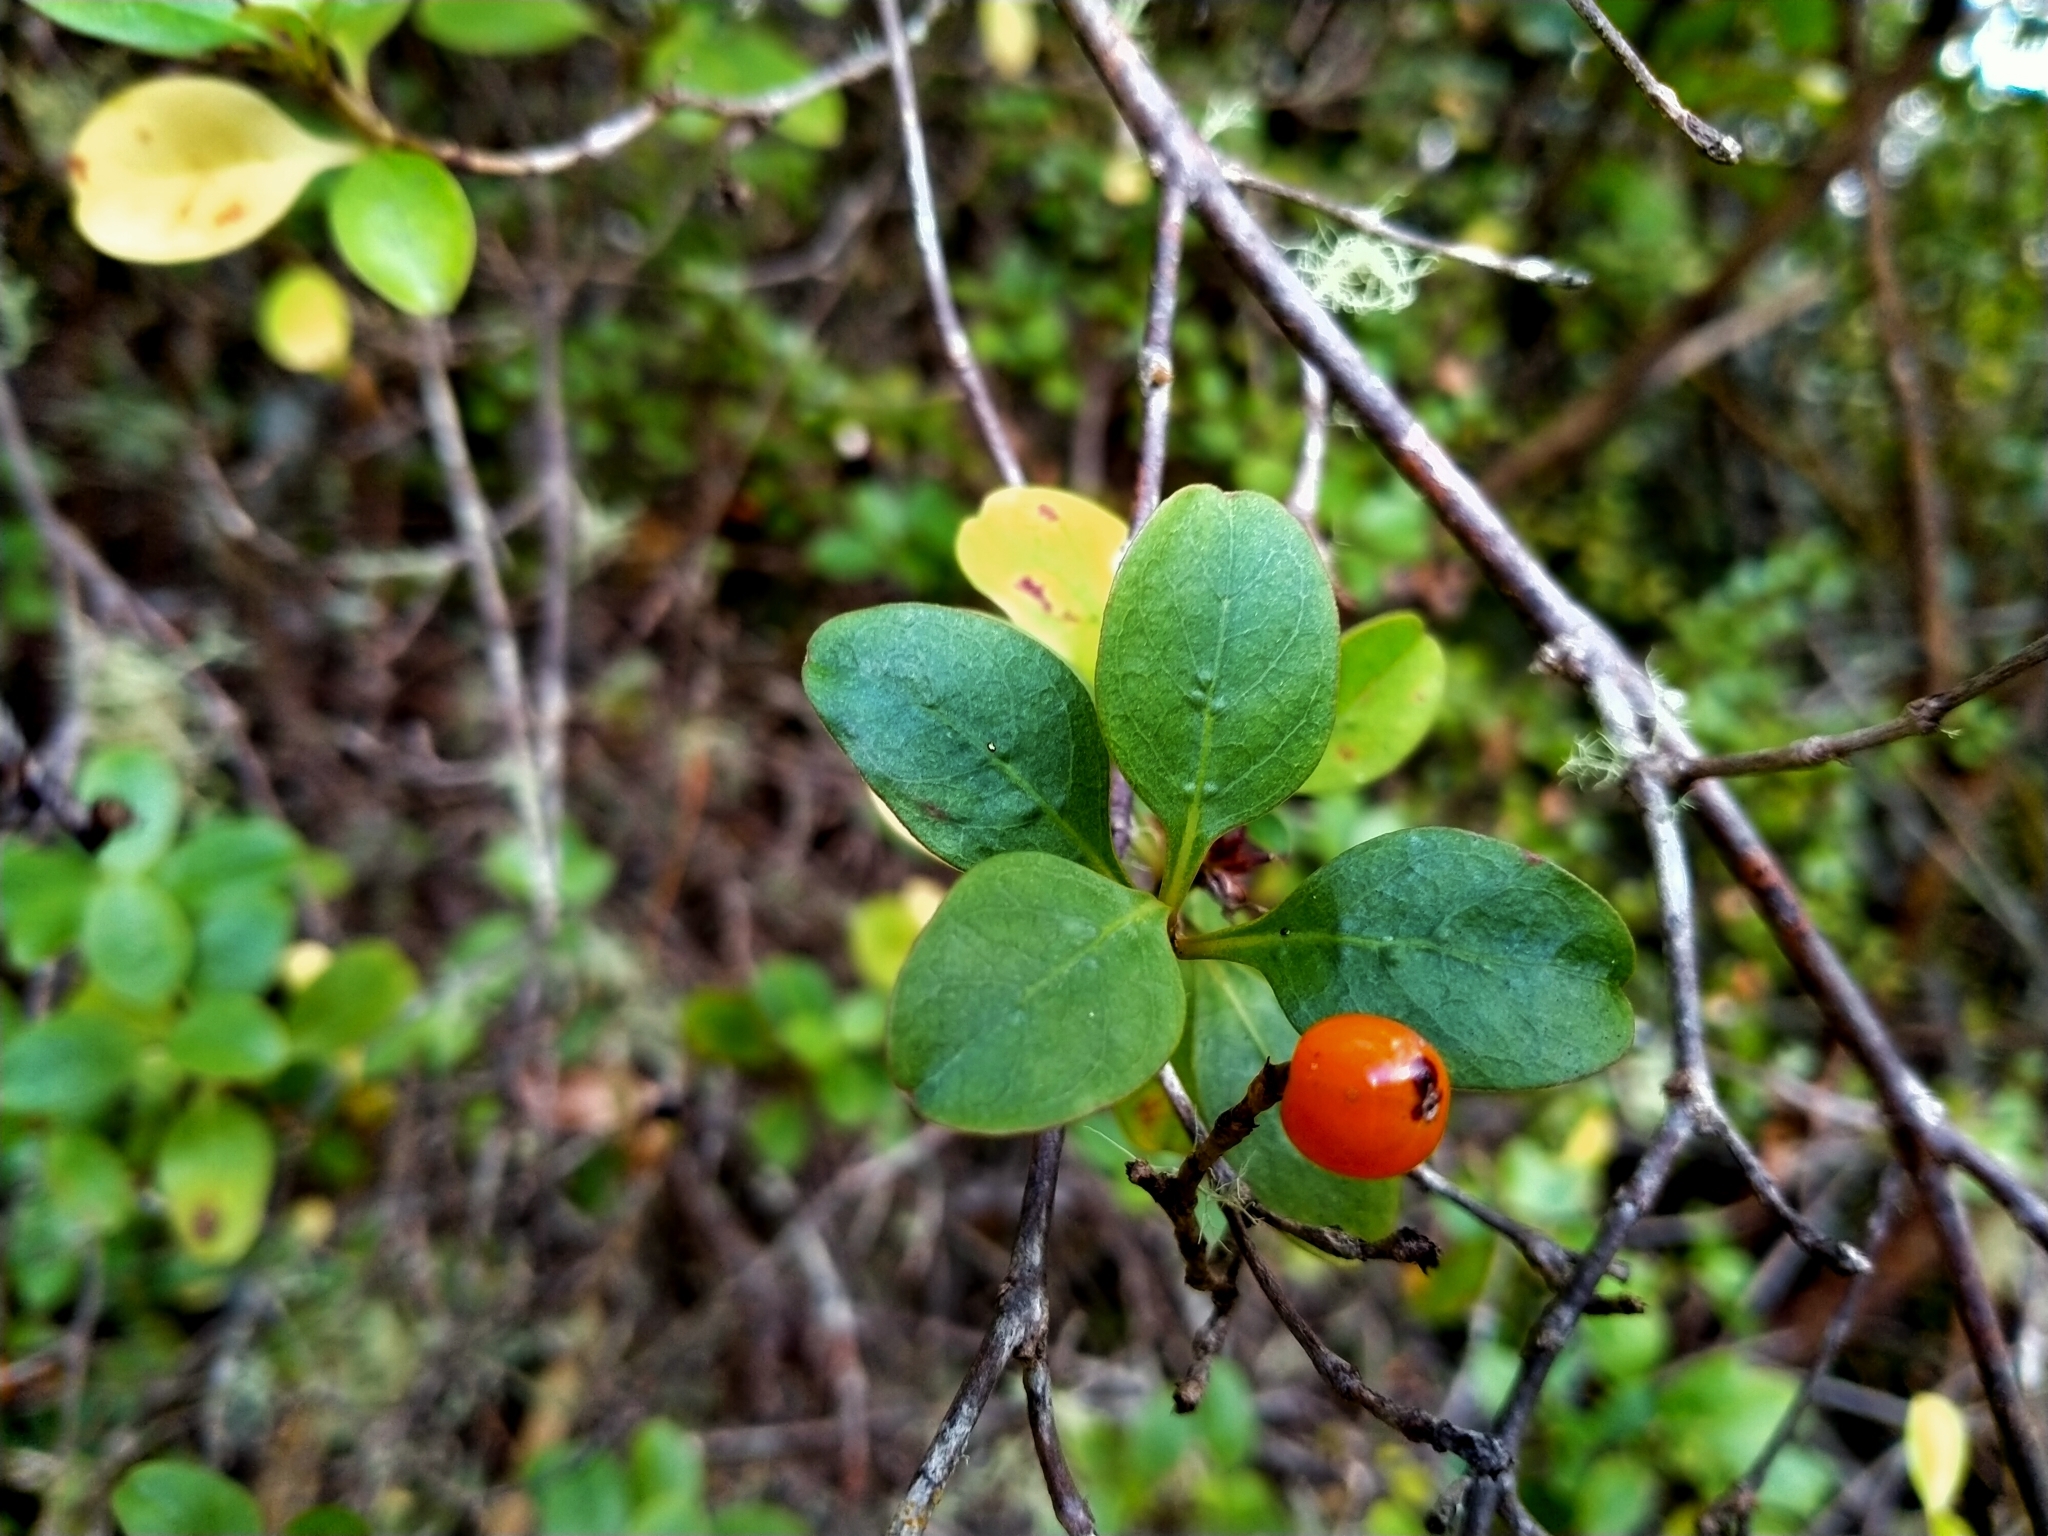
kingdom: Plantae
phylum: Tracheophyta
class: Magnoliopsida
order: Gentianales
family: Rubiaceae
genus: Coprosma
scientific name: Coprosma foetidissima
